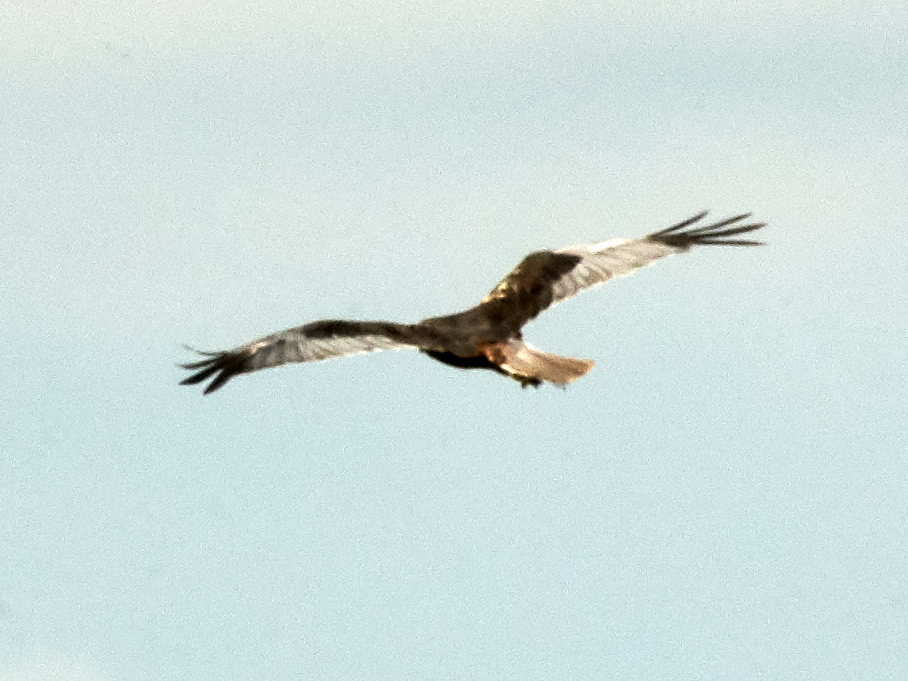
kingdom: Animalia
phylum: Chordata
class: Aves
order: Accipitriformes
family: Accipitridae
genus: Circus
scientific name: Circus aeruginosus
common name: Western marsh harrier
